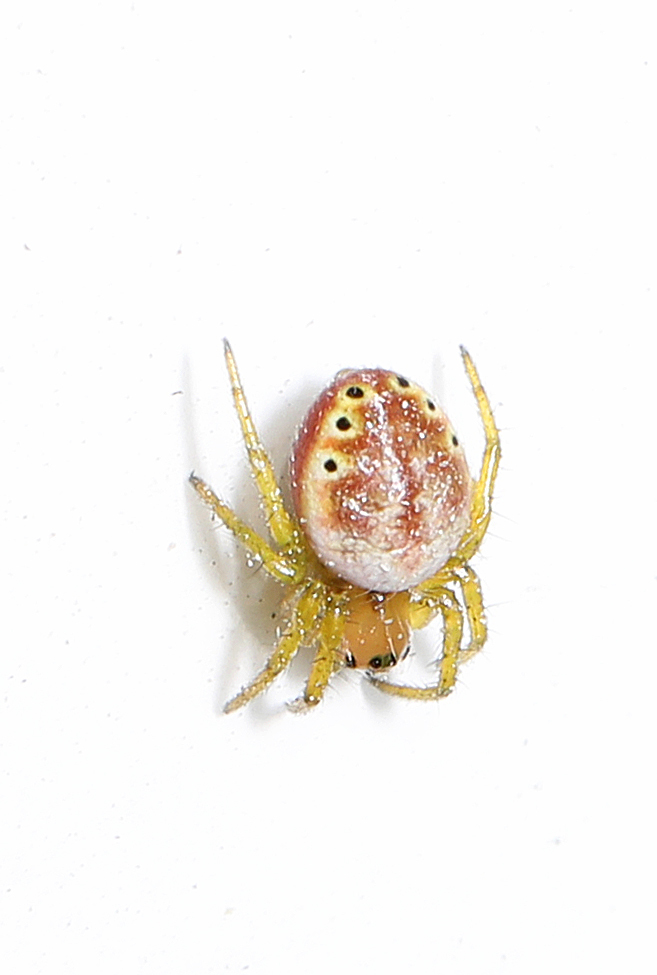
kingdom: Animalia
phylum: Arthropoda
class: Arachnida
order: Araneae
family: Araneidae
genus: Araniella
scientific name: Araniella displicata
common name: Sixspotted orb weaver
